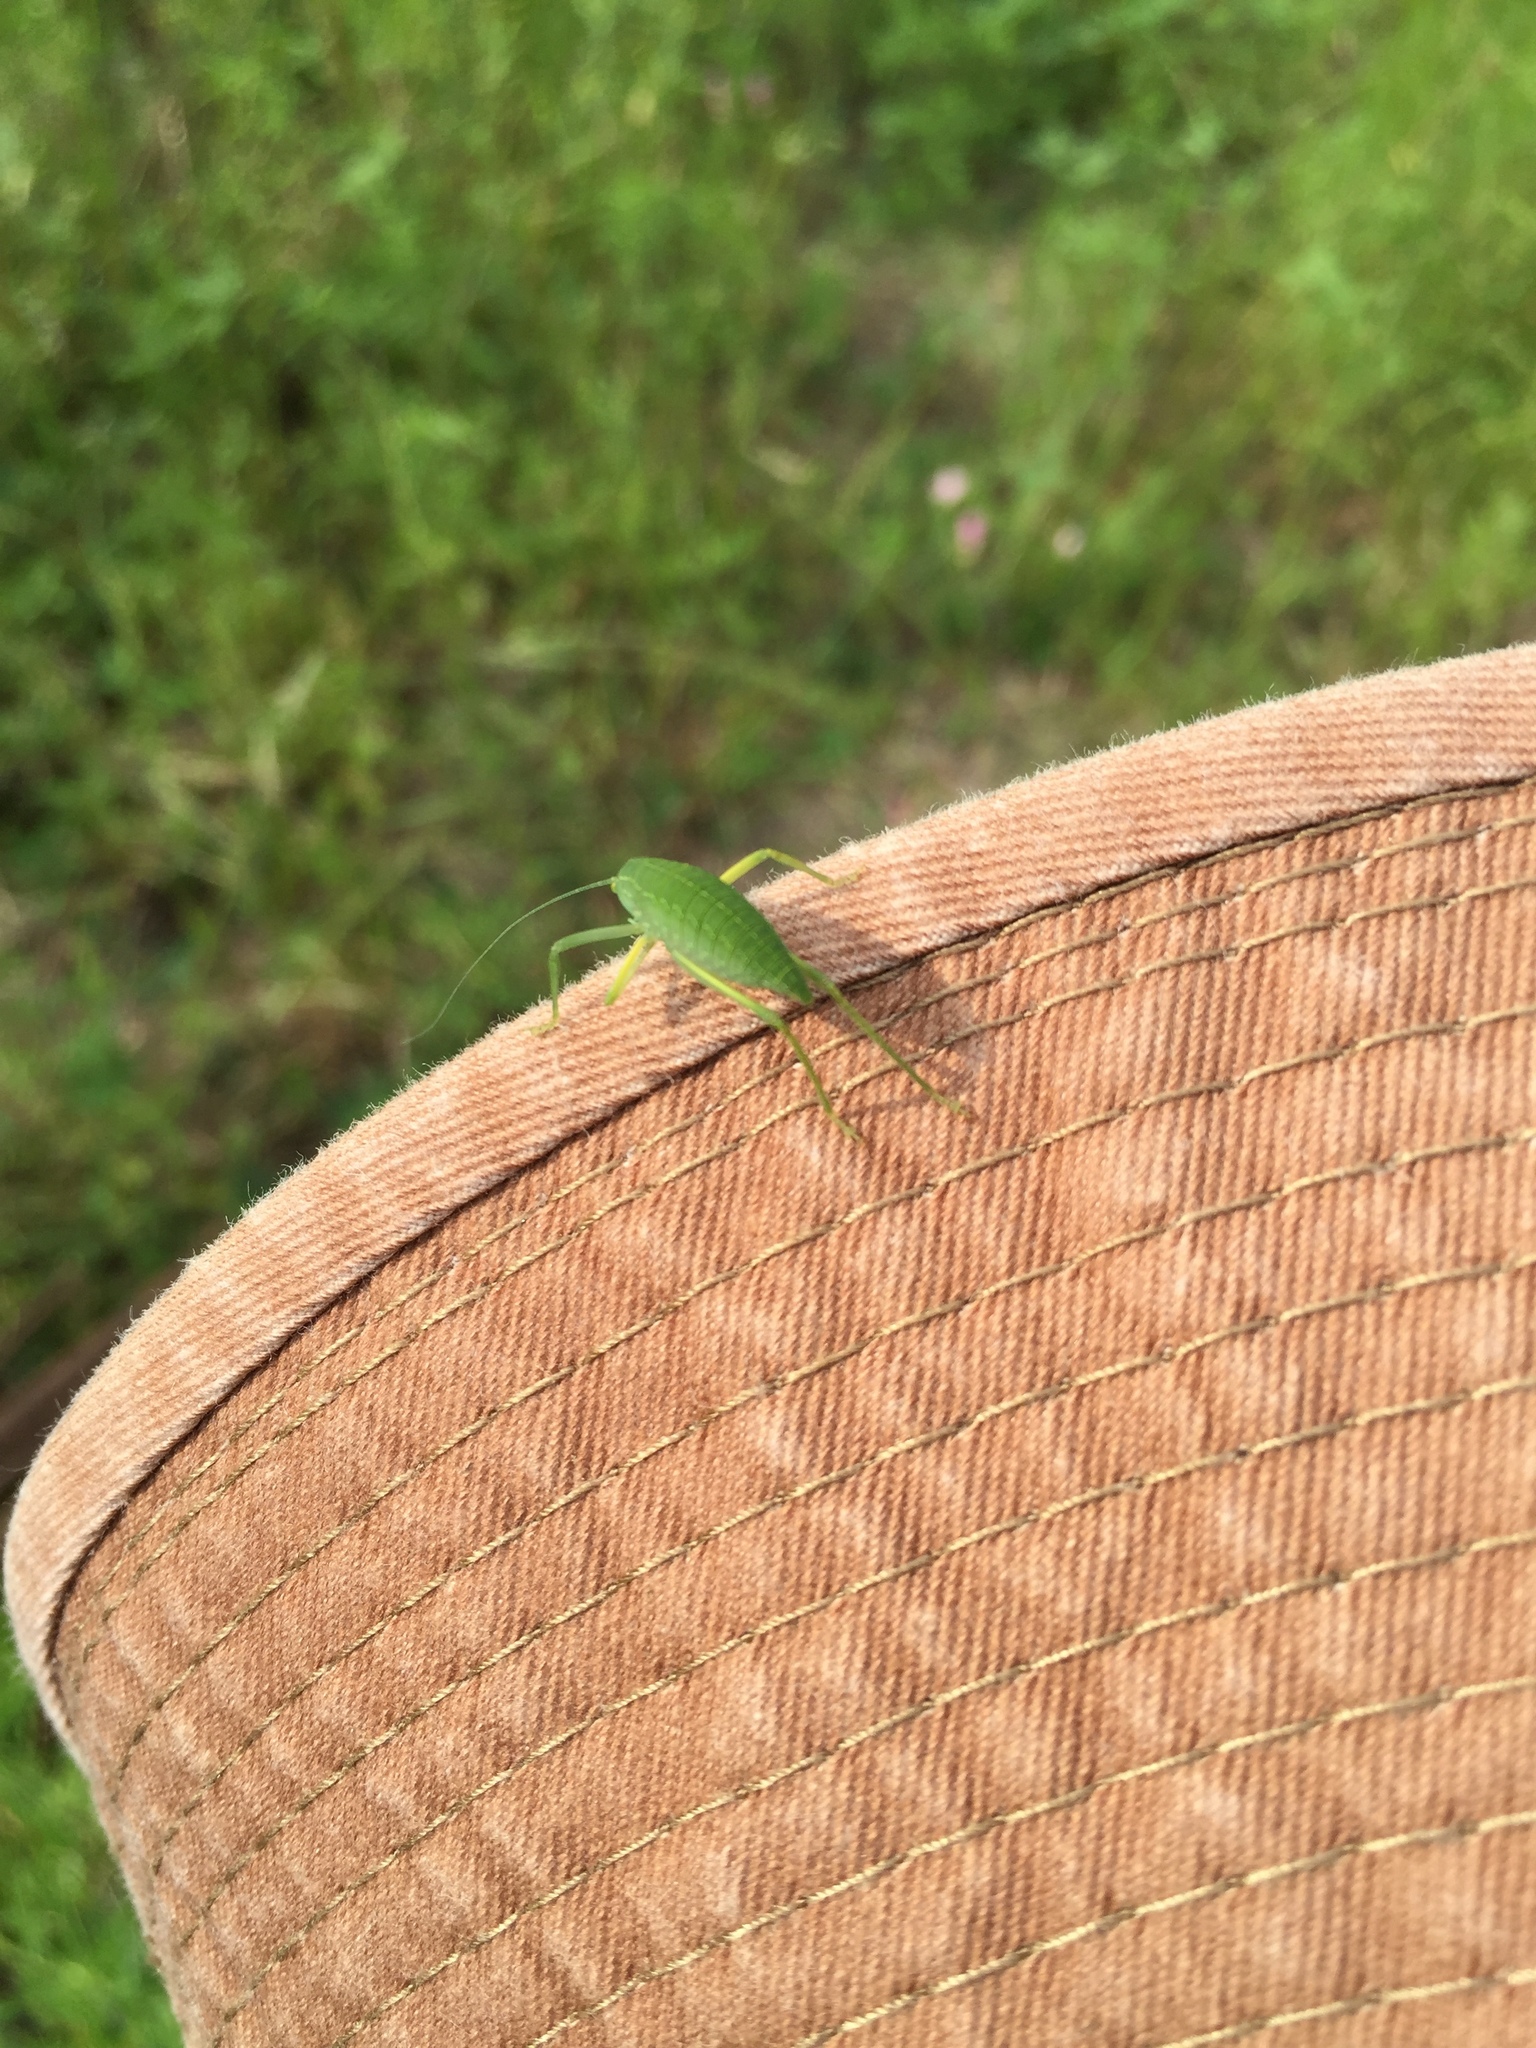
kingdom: Animalia
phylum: Arthropoda
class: Insecta
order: Orthoptera
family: Tettigoniidae
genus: Pterophylla
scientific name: Pterophylla camellifolia
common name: Common true katydid
